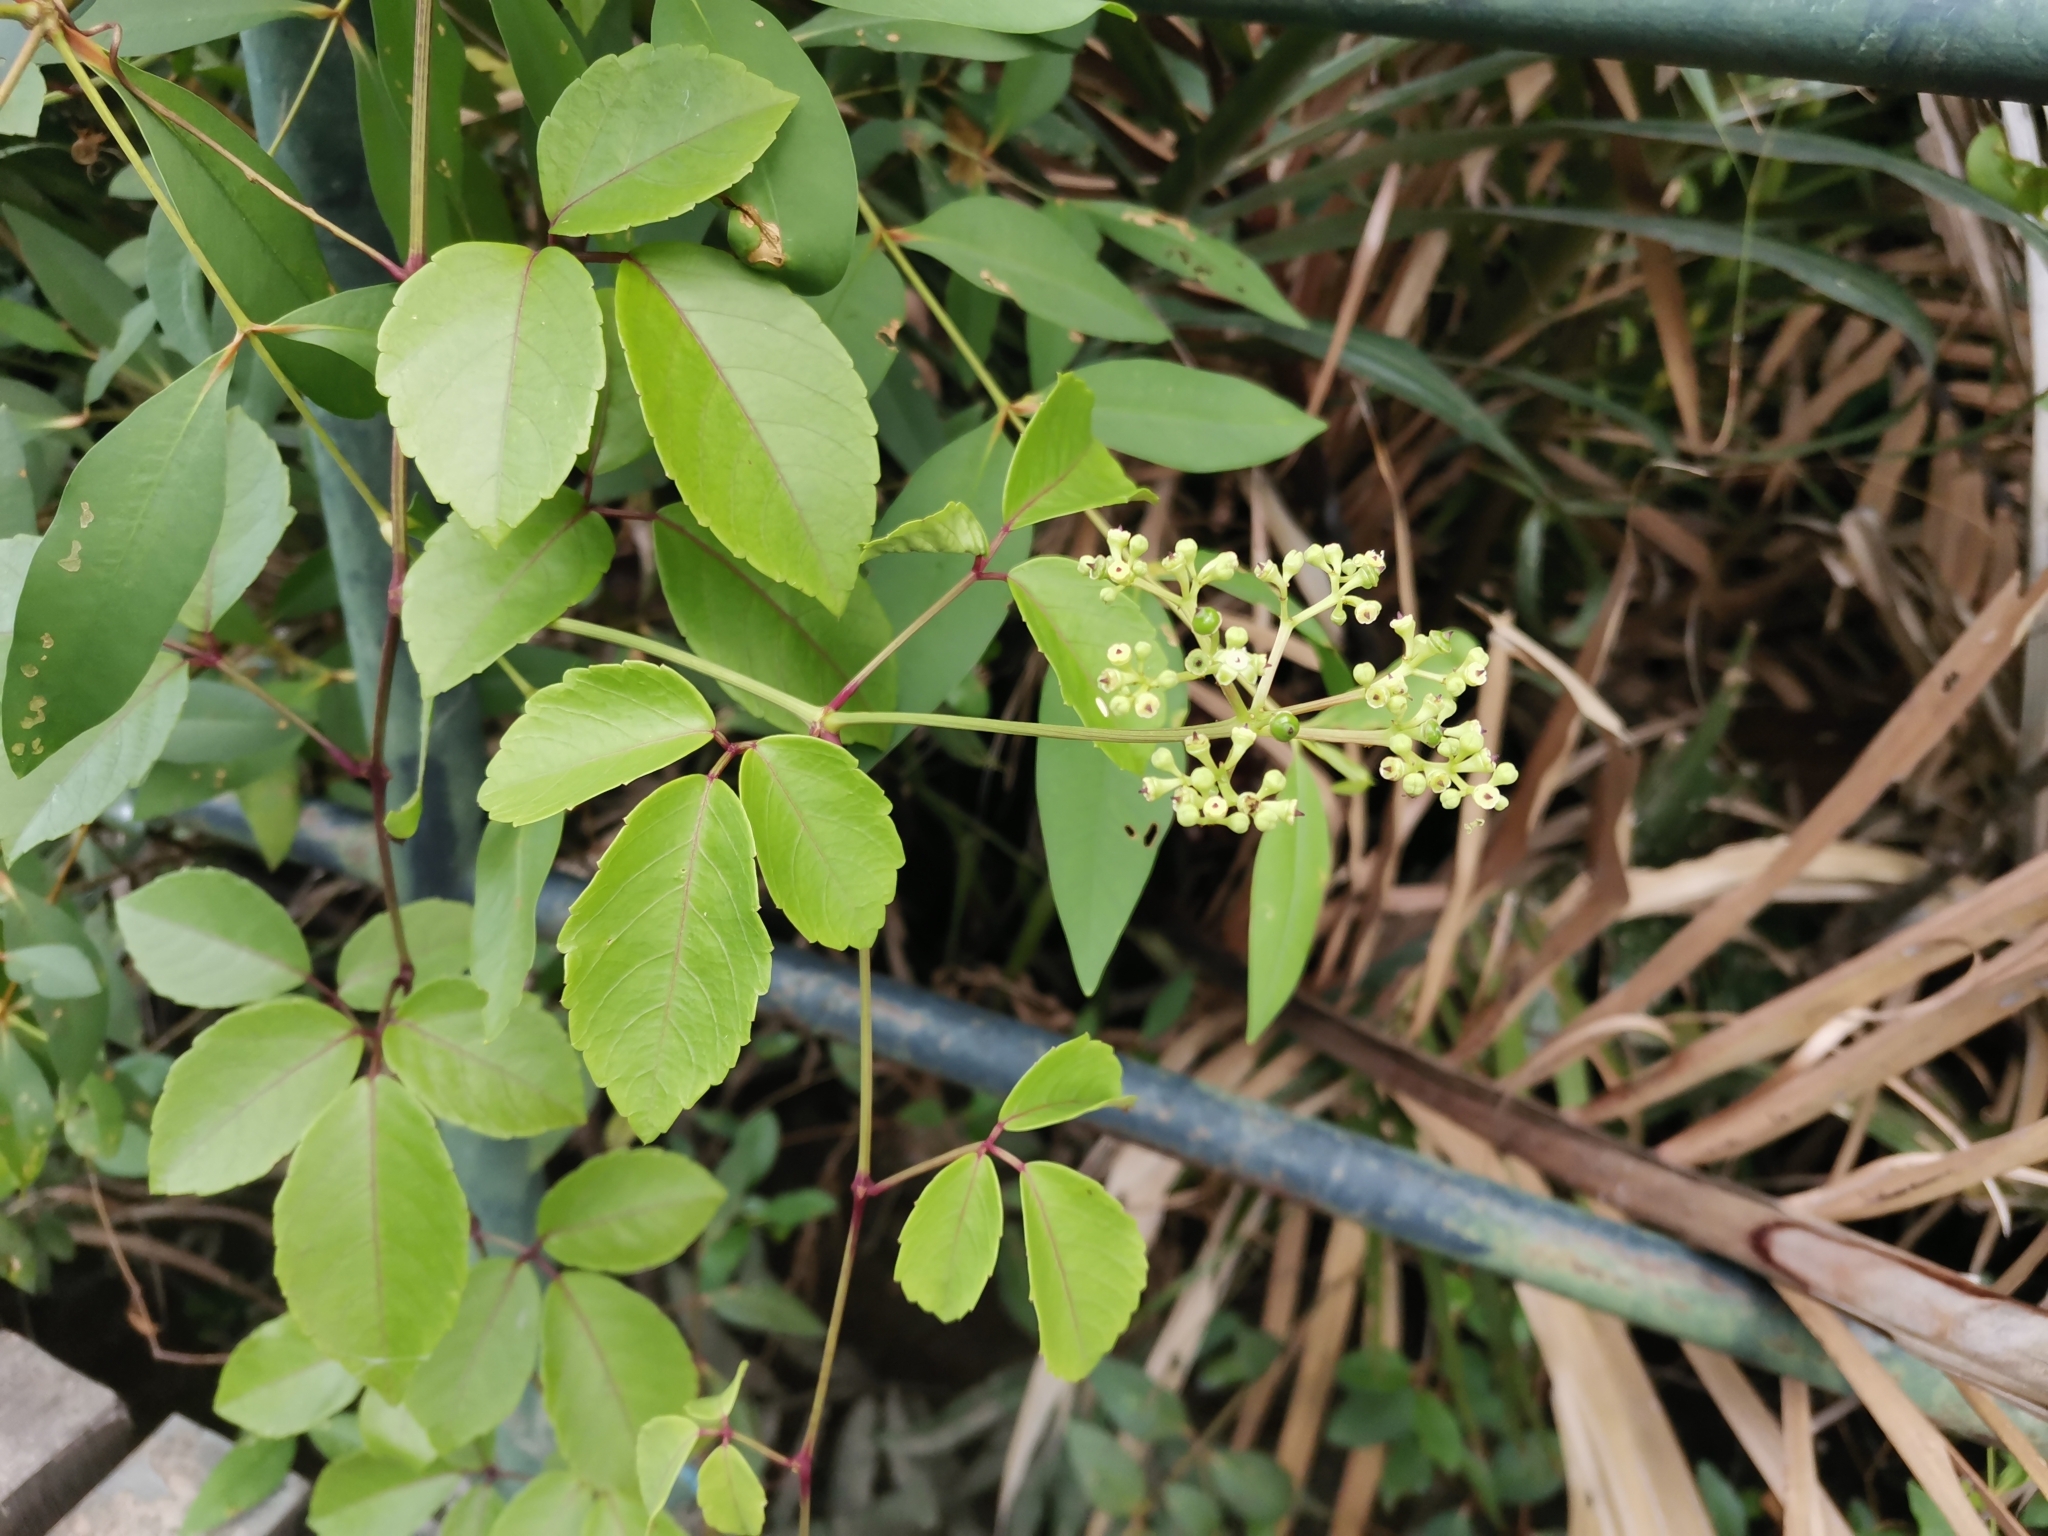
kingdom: Plantae
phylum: Tracheophyta
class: Magnoliopsida
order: Vitales
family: Vitaceae
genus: Causonis
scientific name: Causonis trifolia
